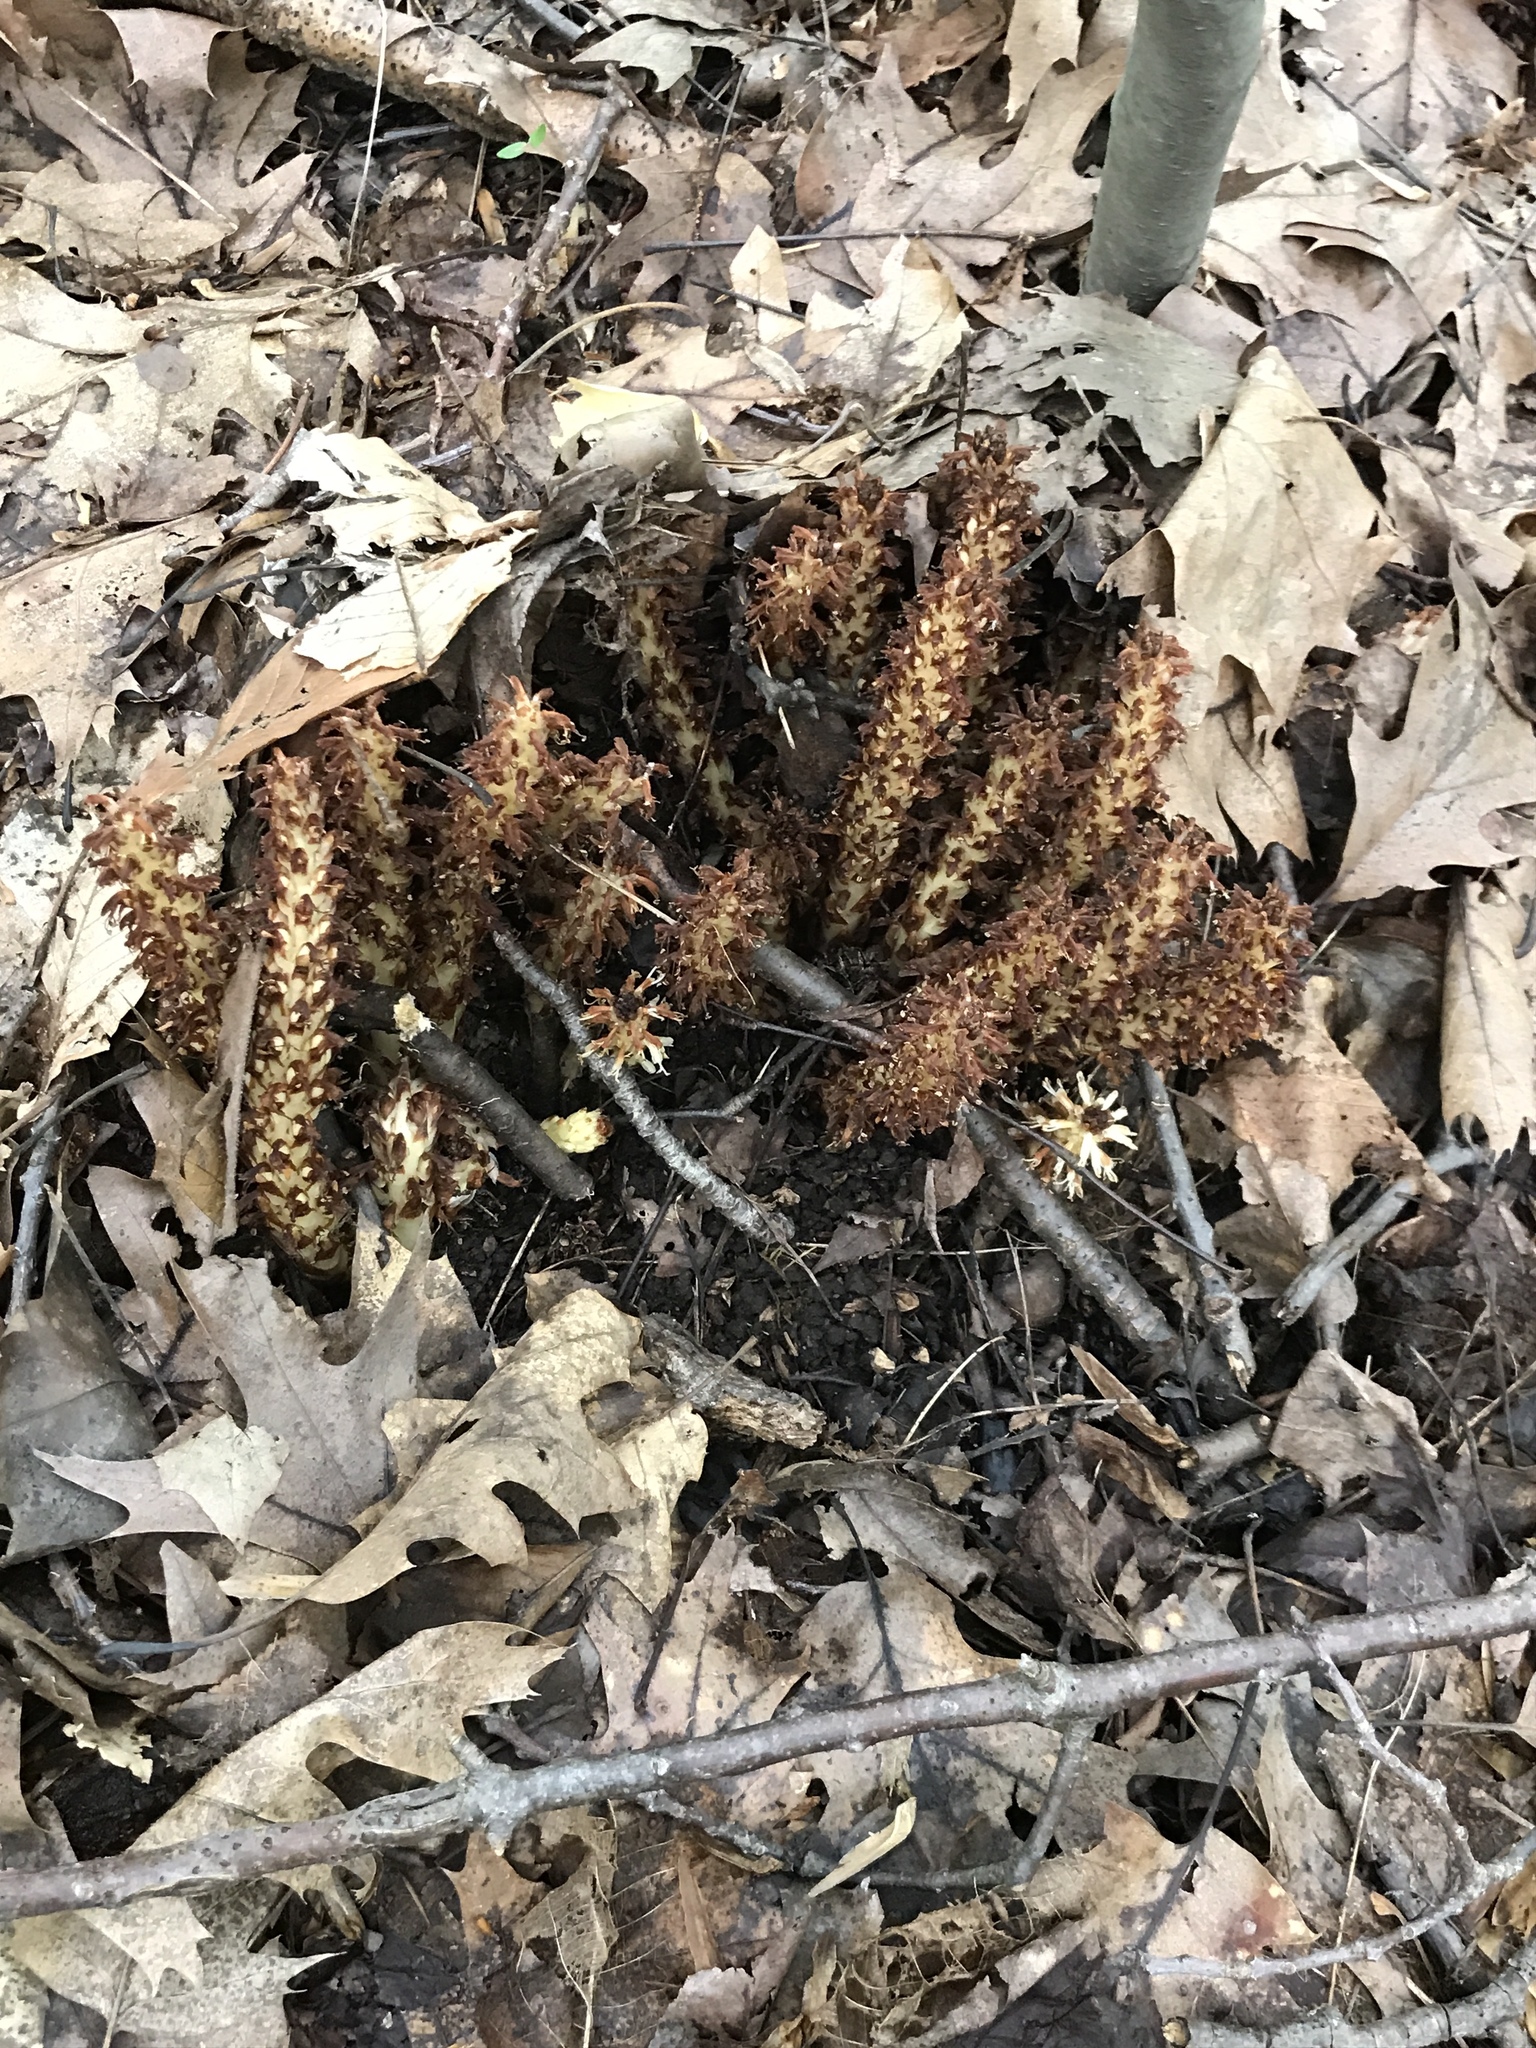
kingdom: Plantae
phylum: Tracheophyta
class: Magnoliopsida
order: Lamiales
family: Orobanchaceae
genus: Conopholis
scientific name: Conopholis americana
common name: American cancer-root
